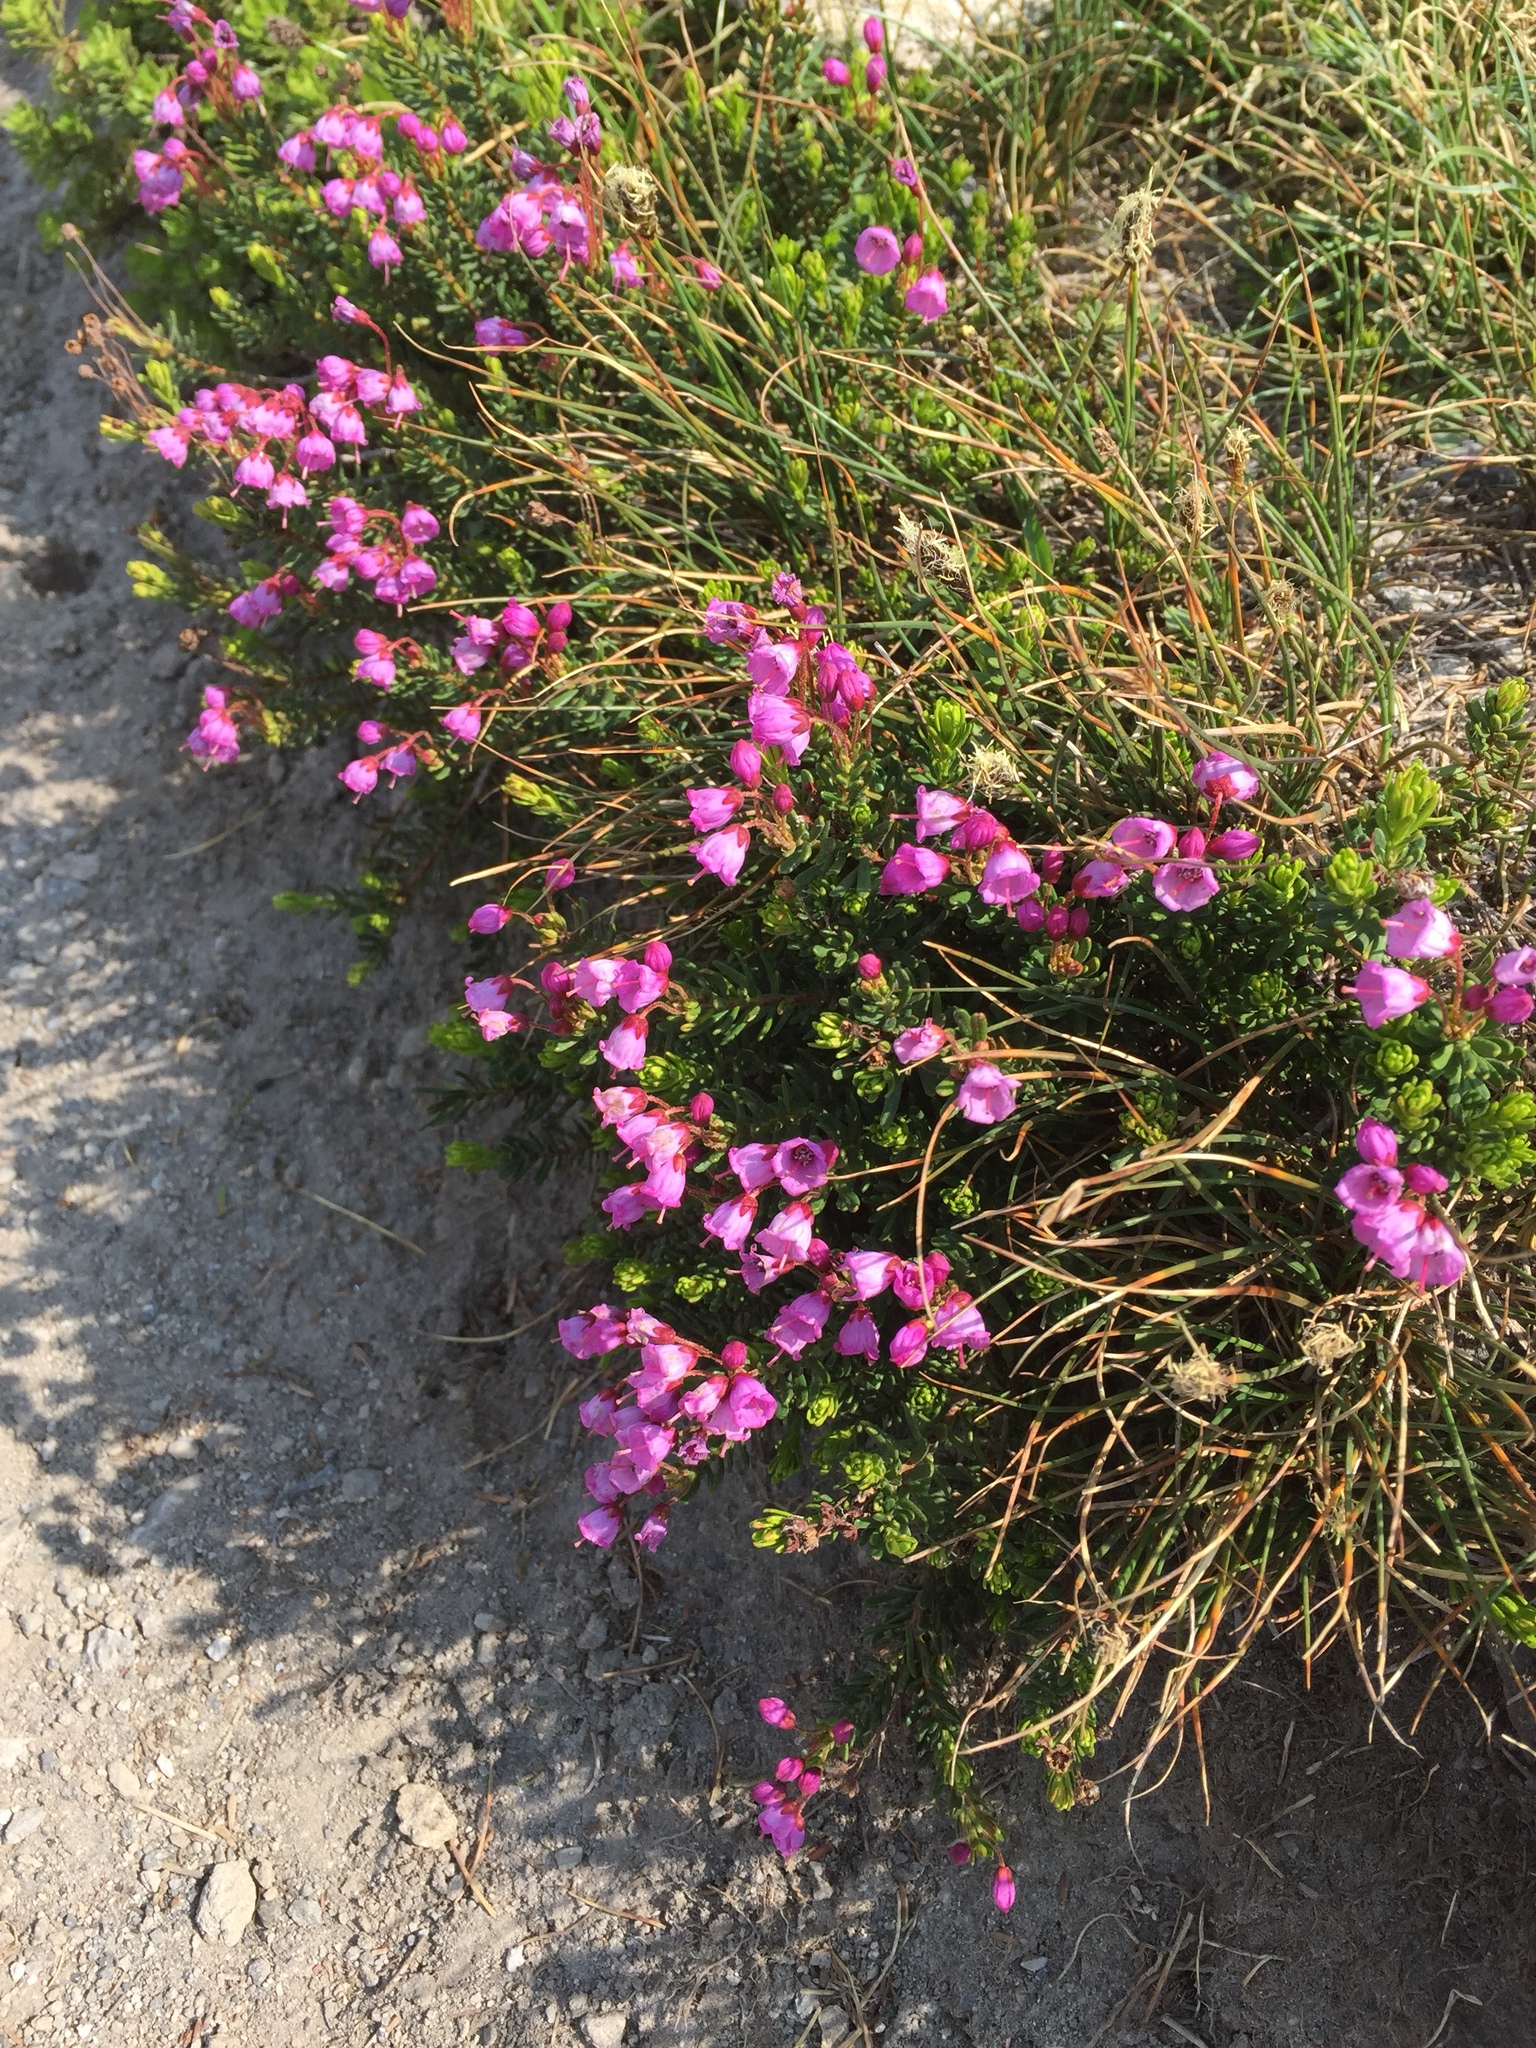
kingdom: Plantae
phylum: Tracheophyta
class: Magnoliopsida
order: Ericales
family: Ericaceae
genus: Phyllodoce
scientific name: Phyllodoce empetriformis
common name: Pink mountain heather
